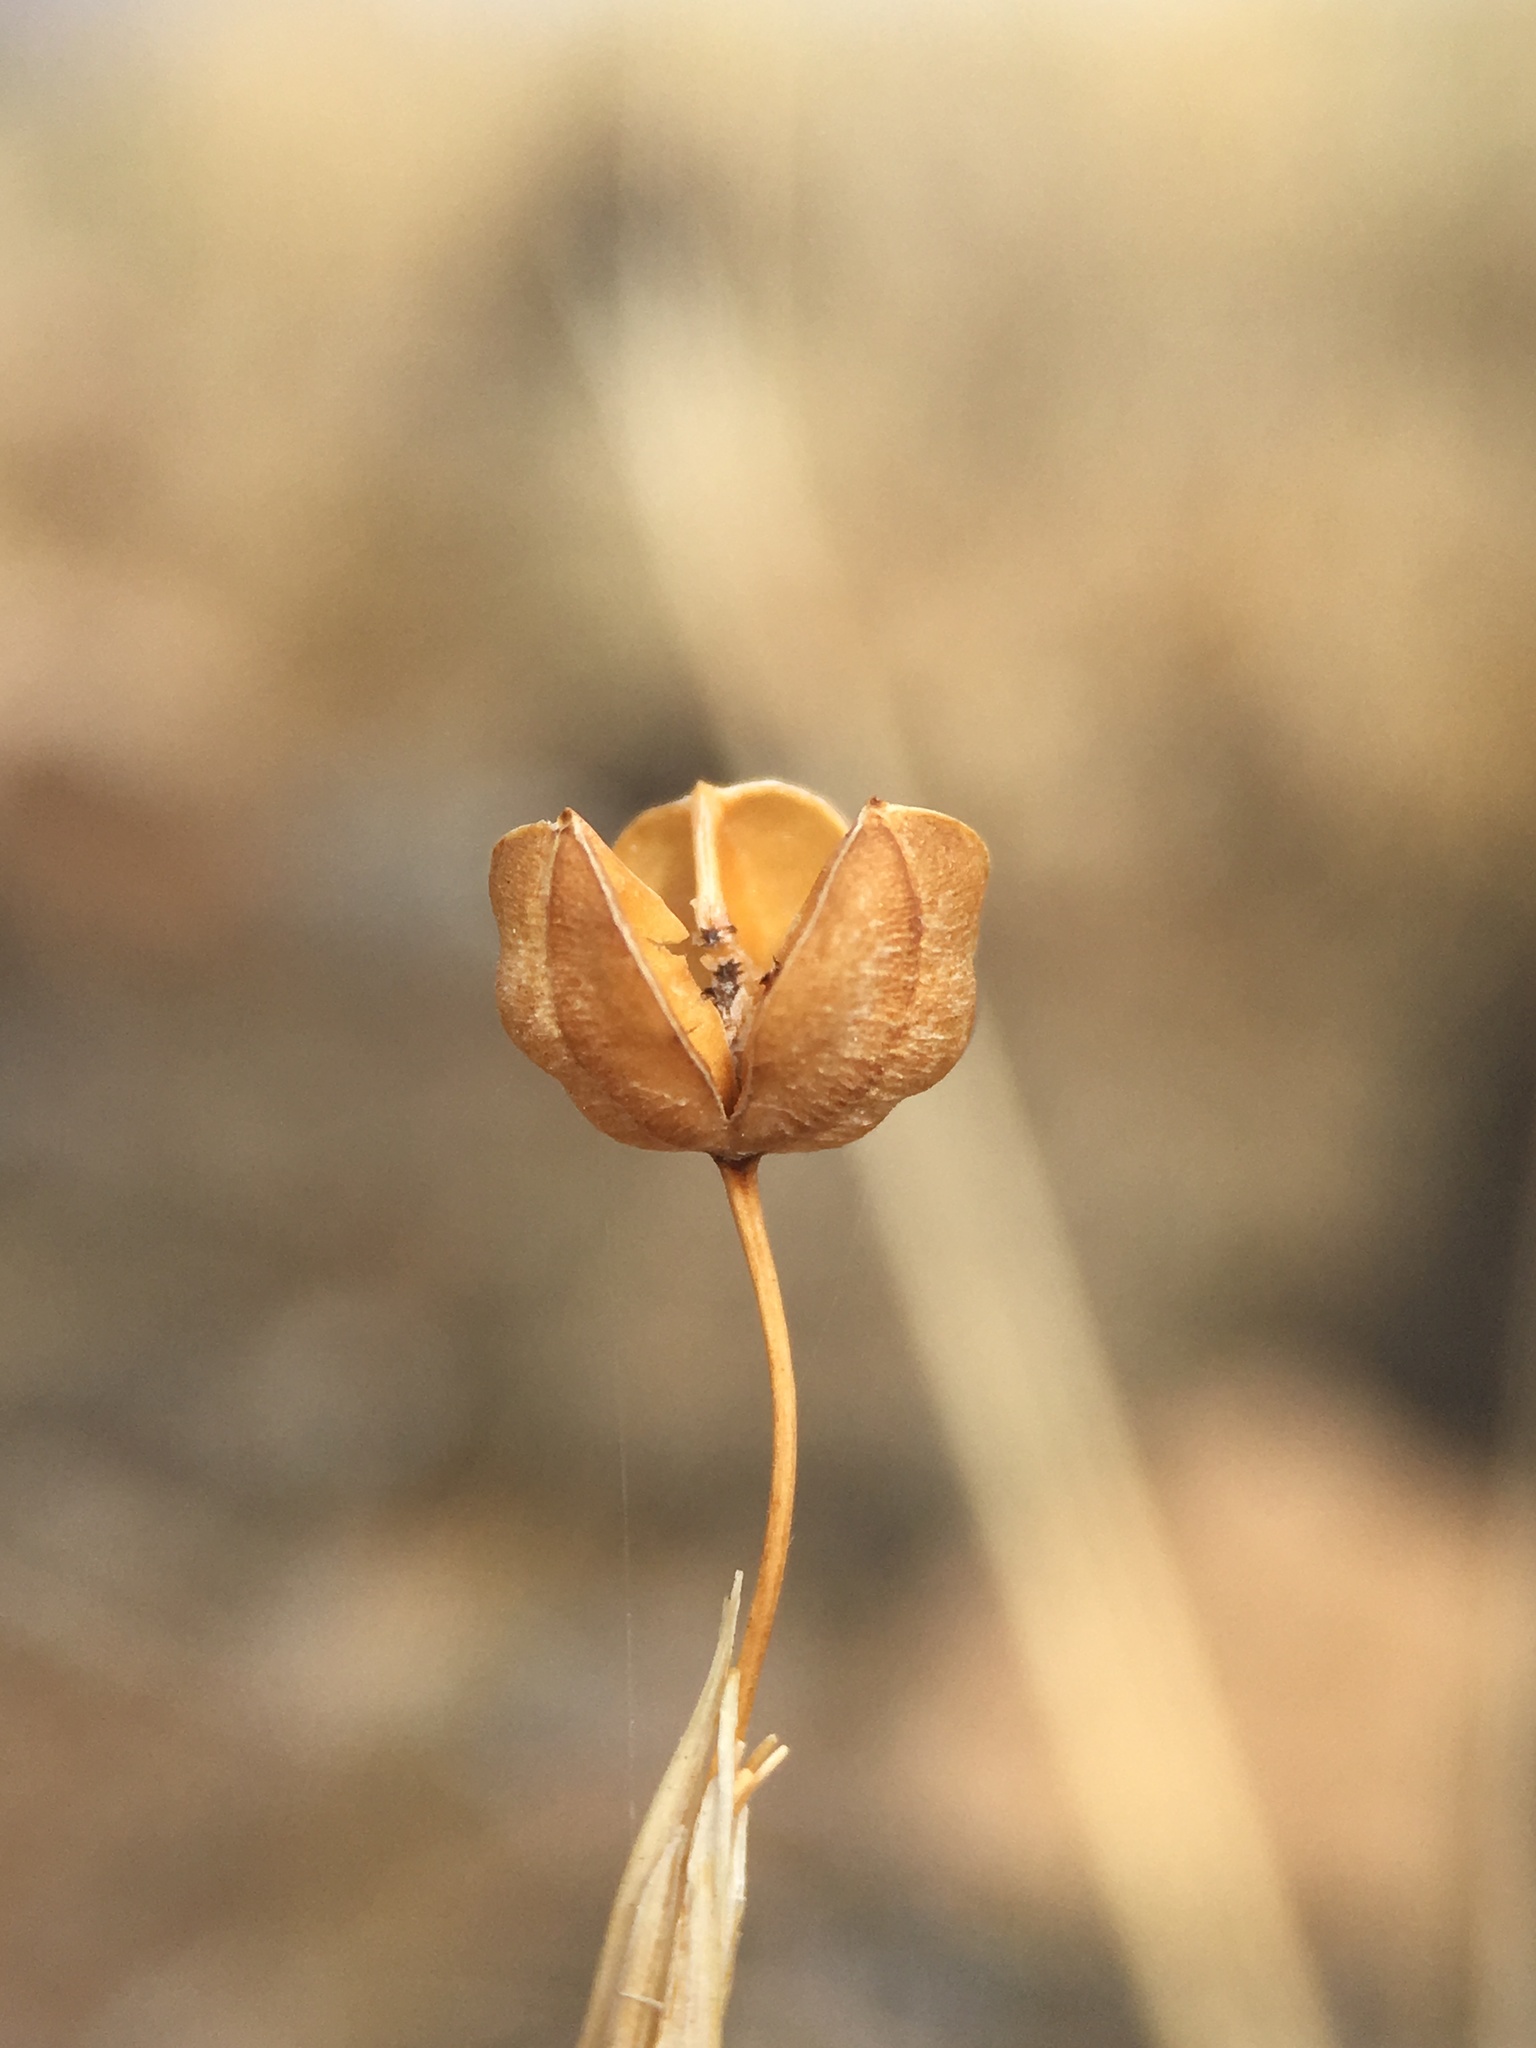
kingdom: Plantae
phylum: Tracheophyta
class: Liliopsida
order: Asparagales
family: Iridaceae
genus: Sisyrinchium
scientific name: Sisyrinchium funereum
